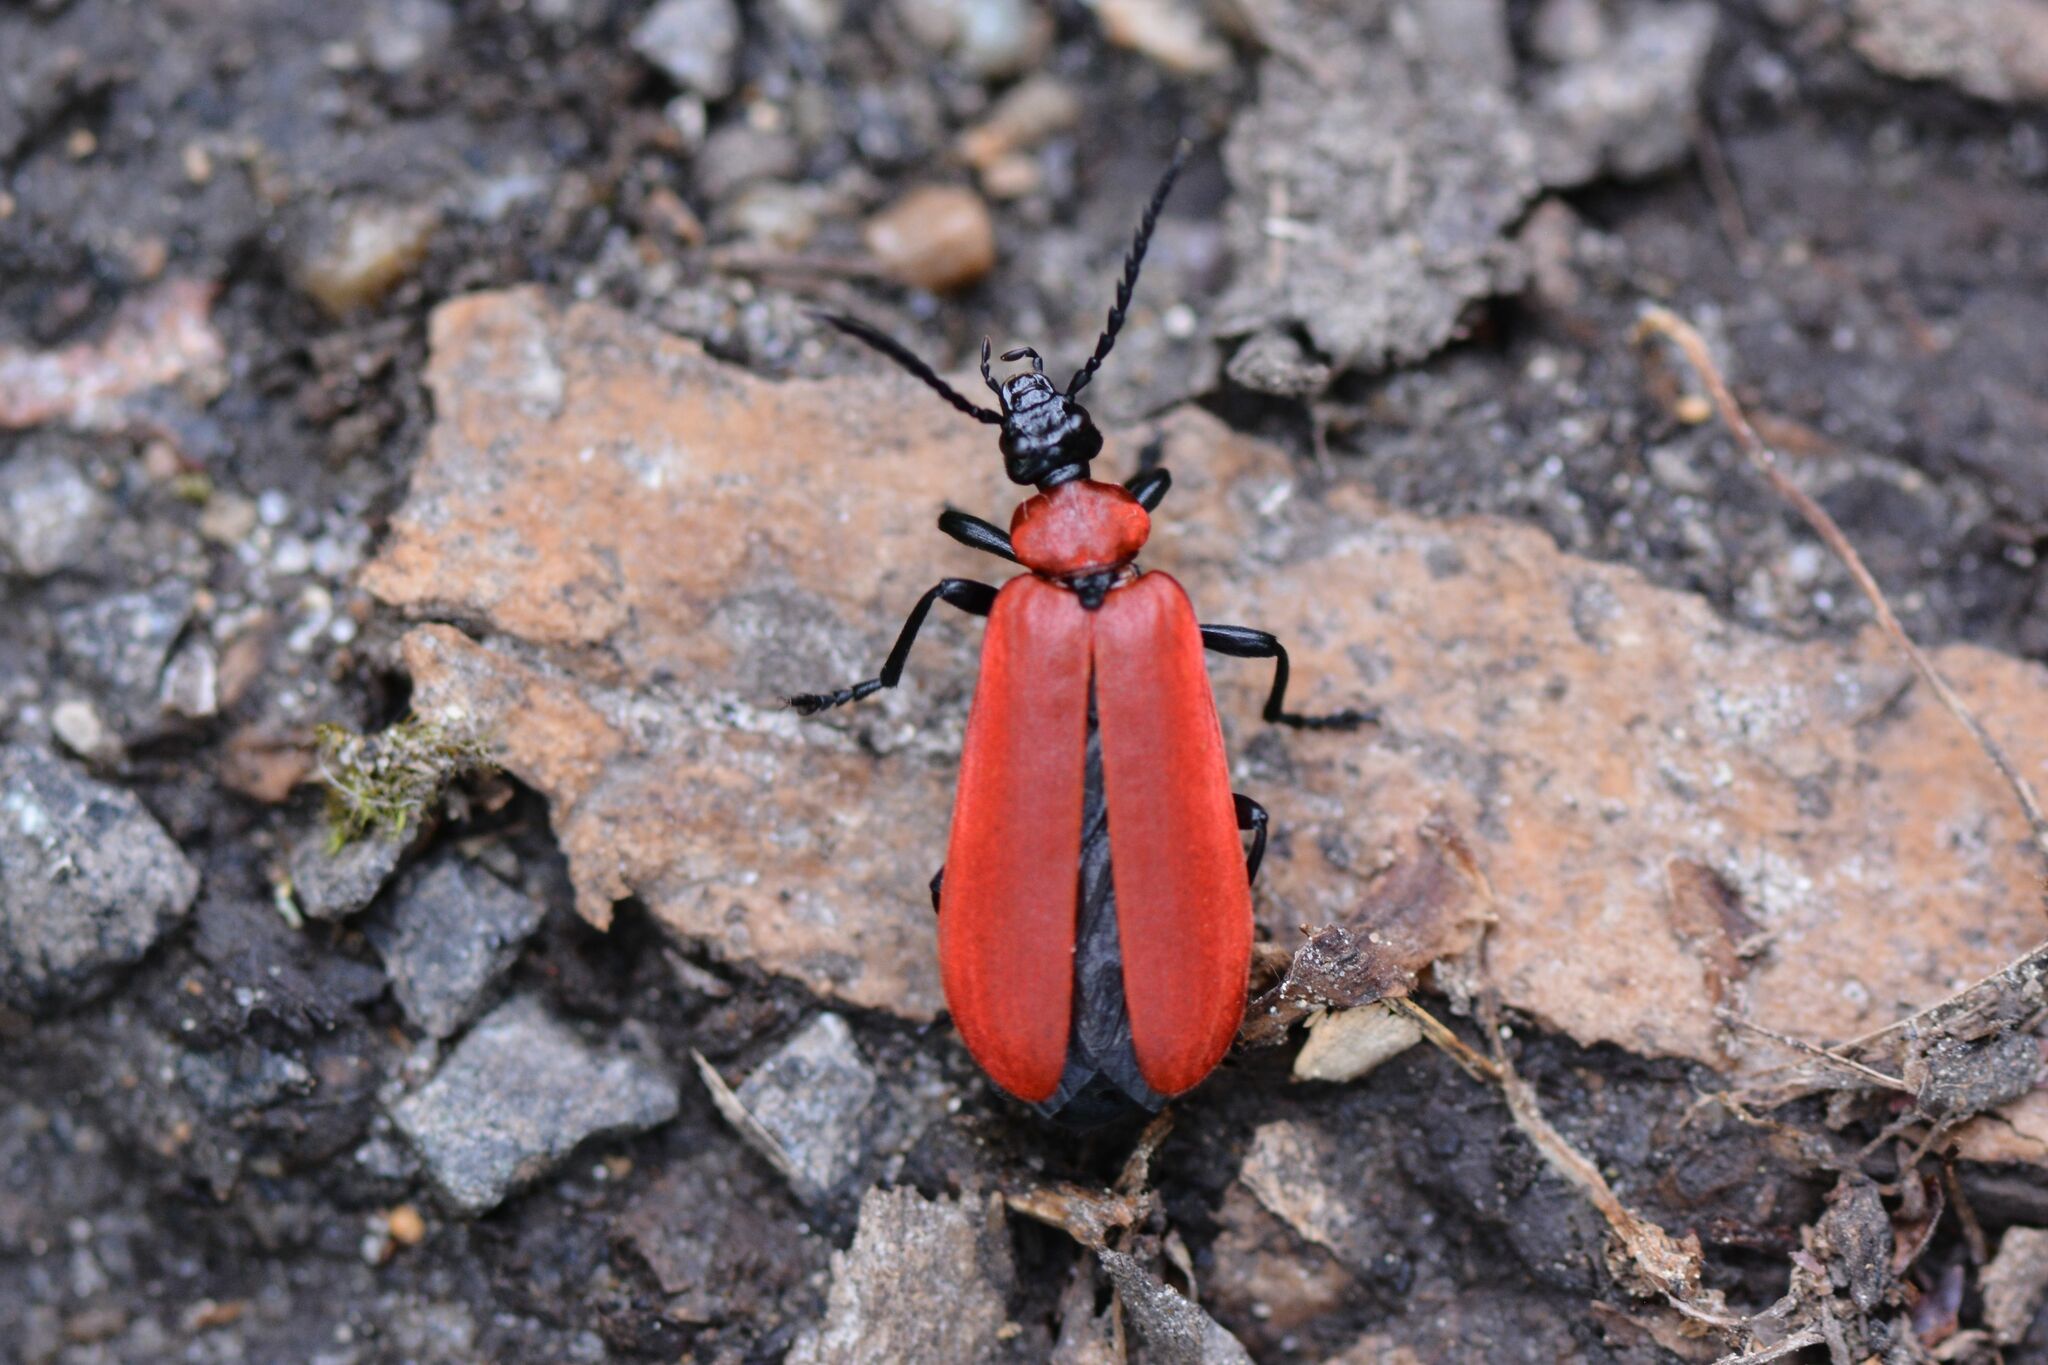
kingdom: Animalia
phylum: Arthropoda
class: Insecta
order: Coleoptera
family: Pyrochroidae
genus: Pyrochroa
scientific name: Pyrochroa coccinea
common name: Black-headed cardinal beetle
